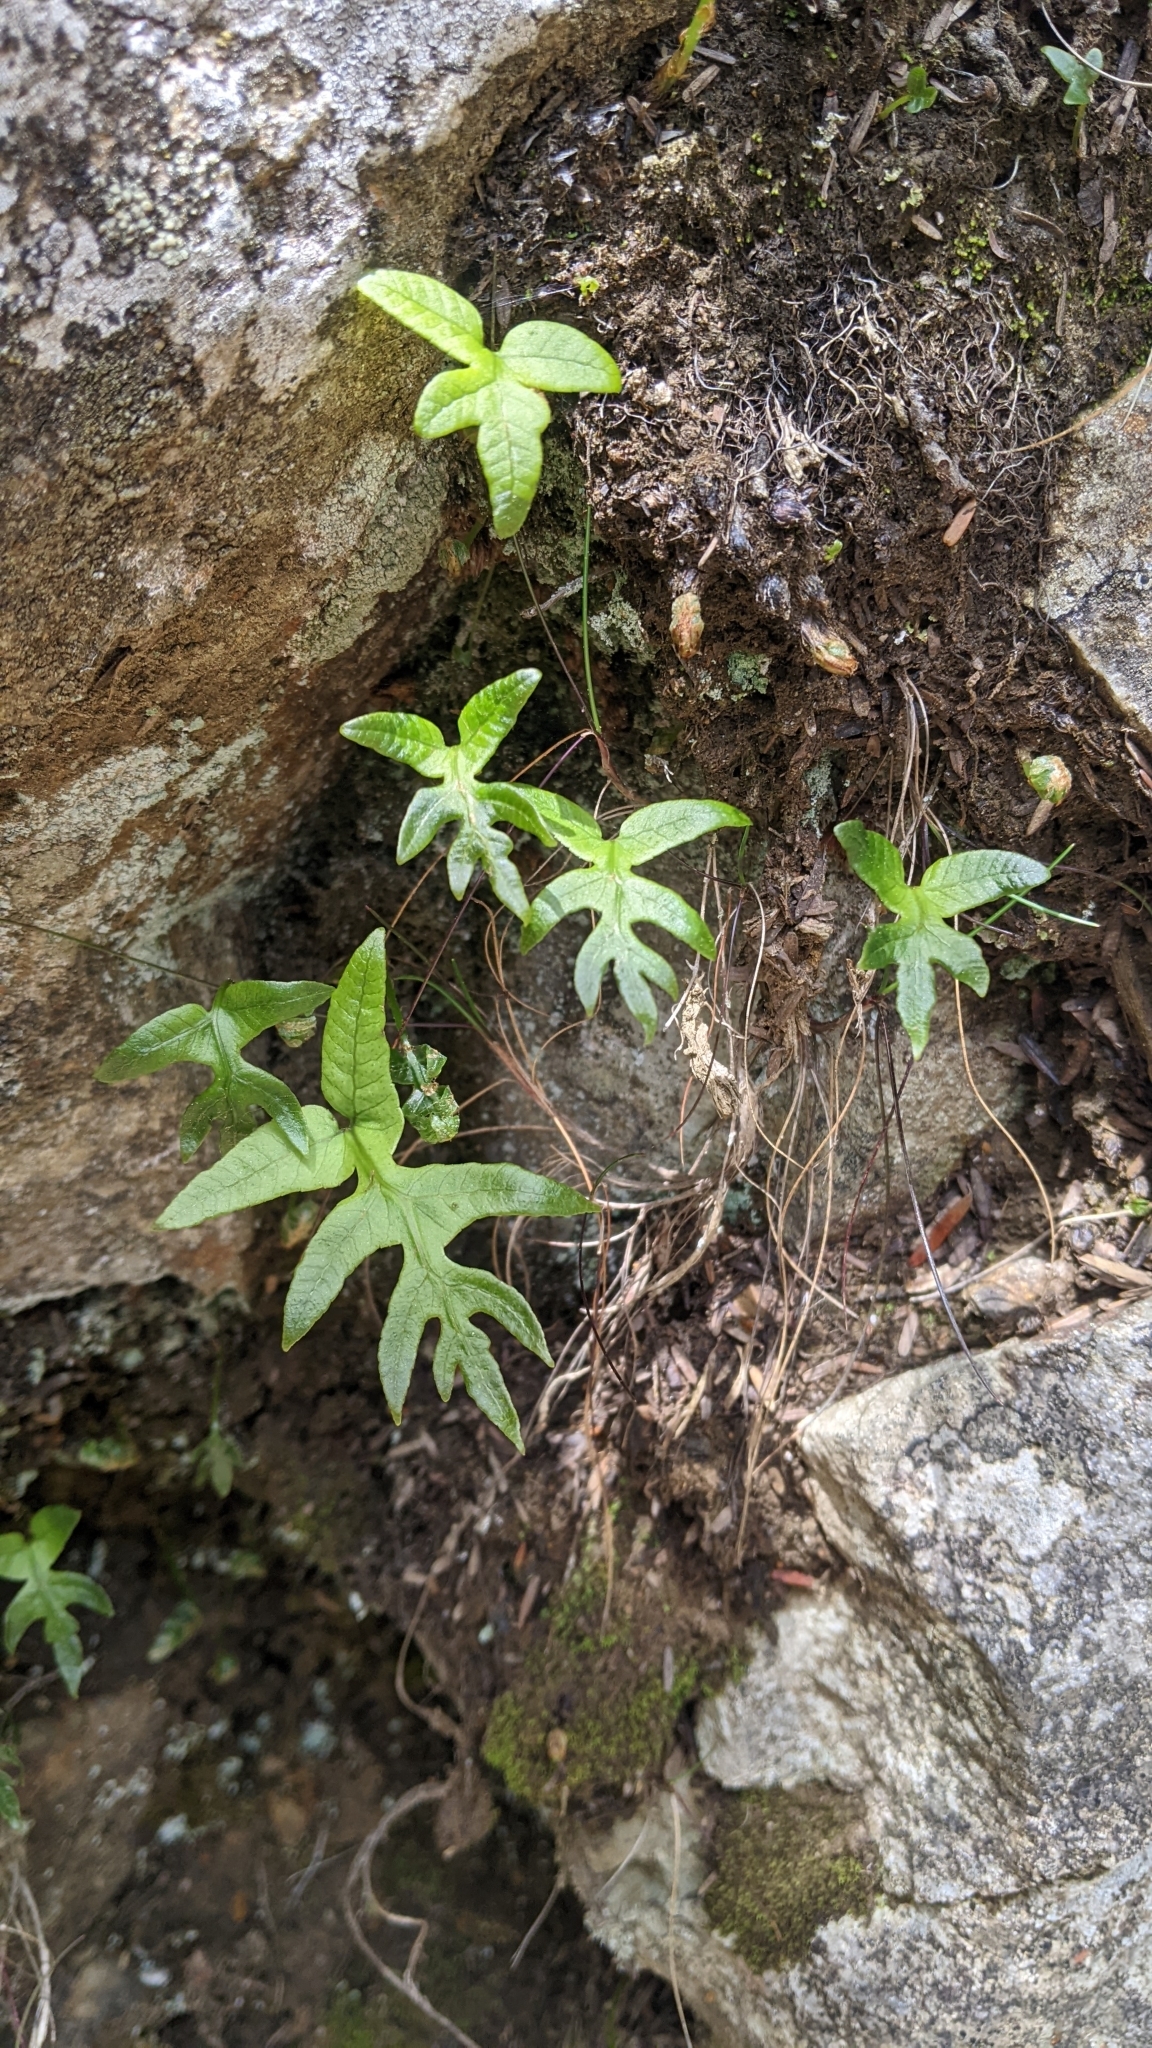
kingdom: Plantae
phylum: Tracheophyta
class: Polypodiopsida
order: Polypodiales
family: Polypodiaceae
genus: Selliguea
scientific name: Selliguea quasidivaricata
